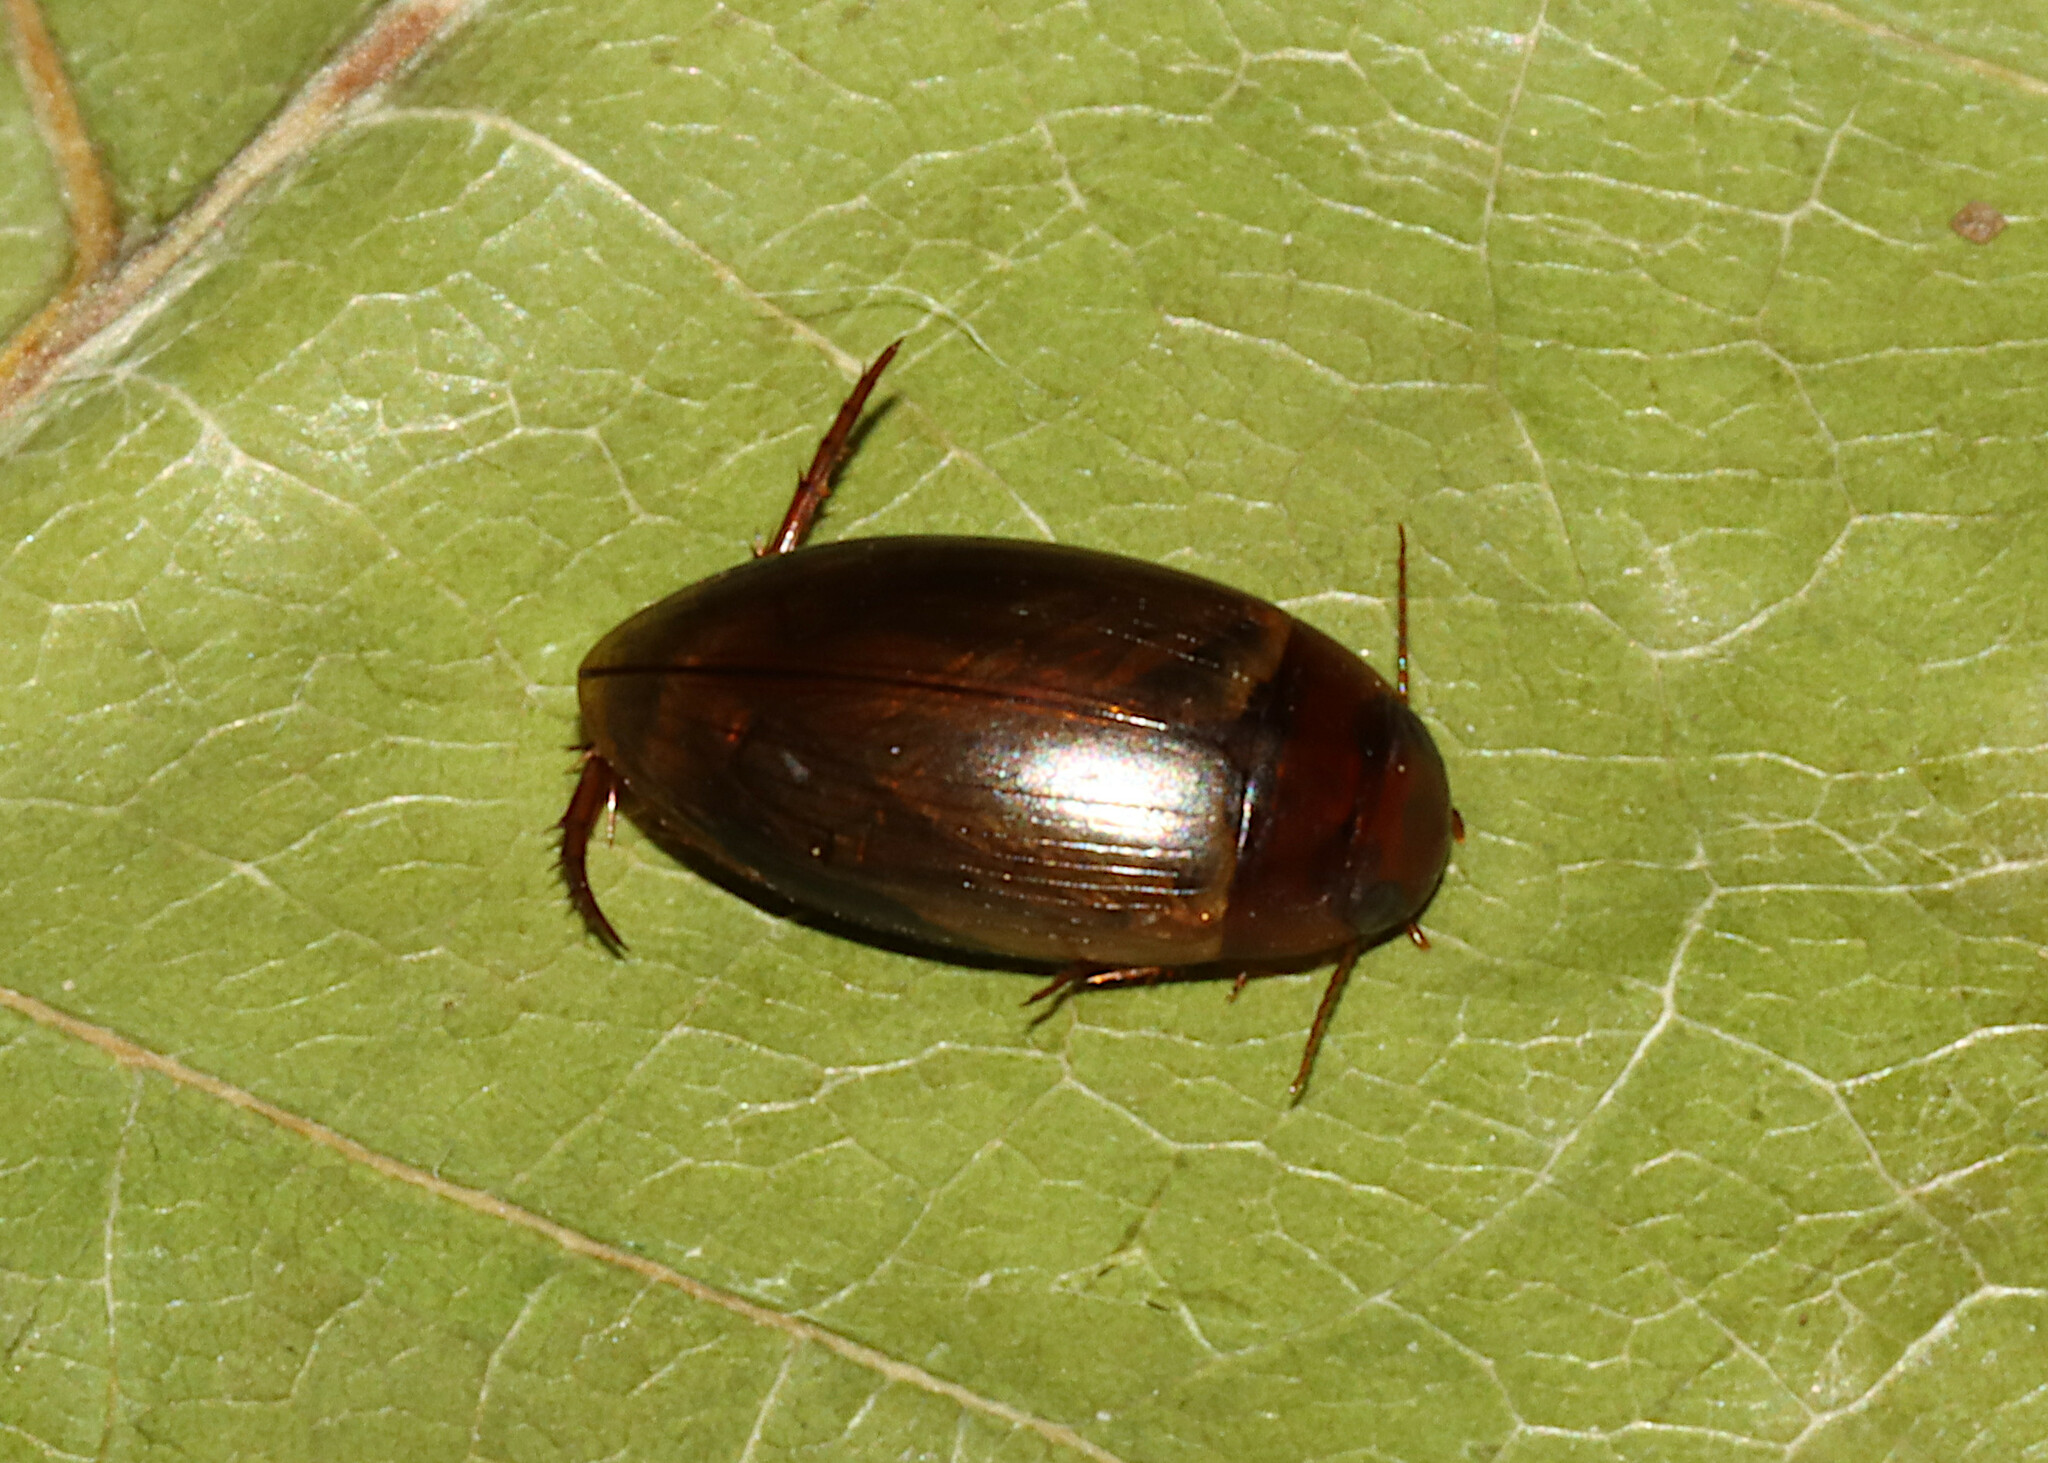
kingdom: Animalia
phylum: Arthropoda
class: Insecta
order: Coleoptera
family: Dytiscidae
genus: Copelatus
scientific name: Copelatus chevrolati
